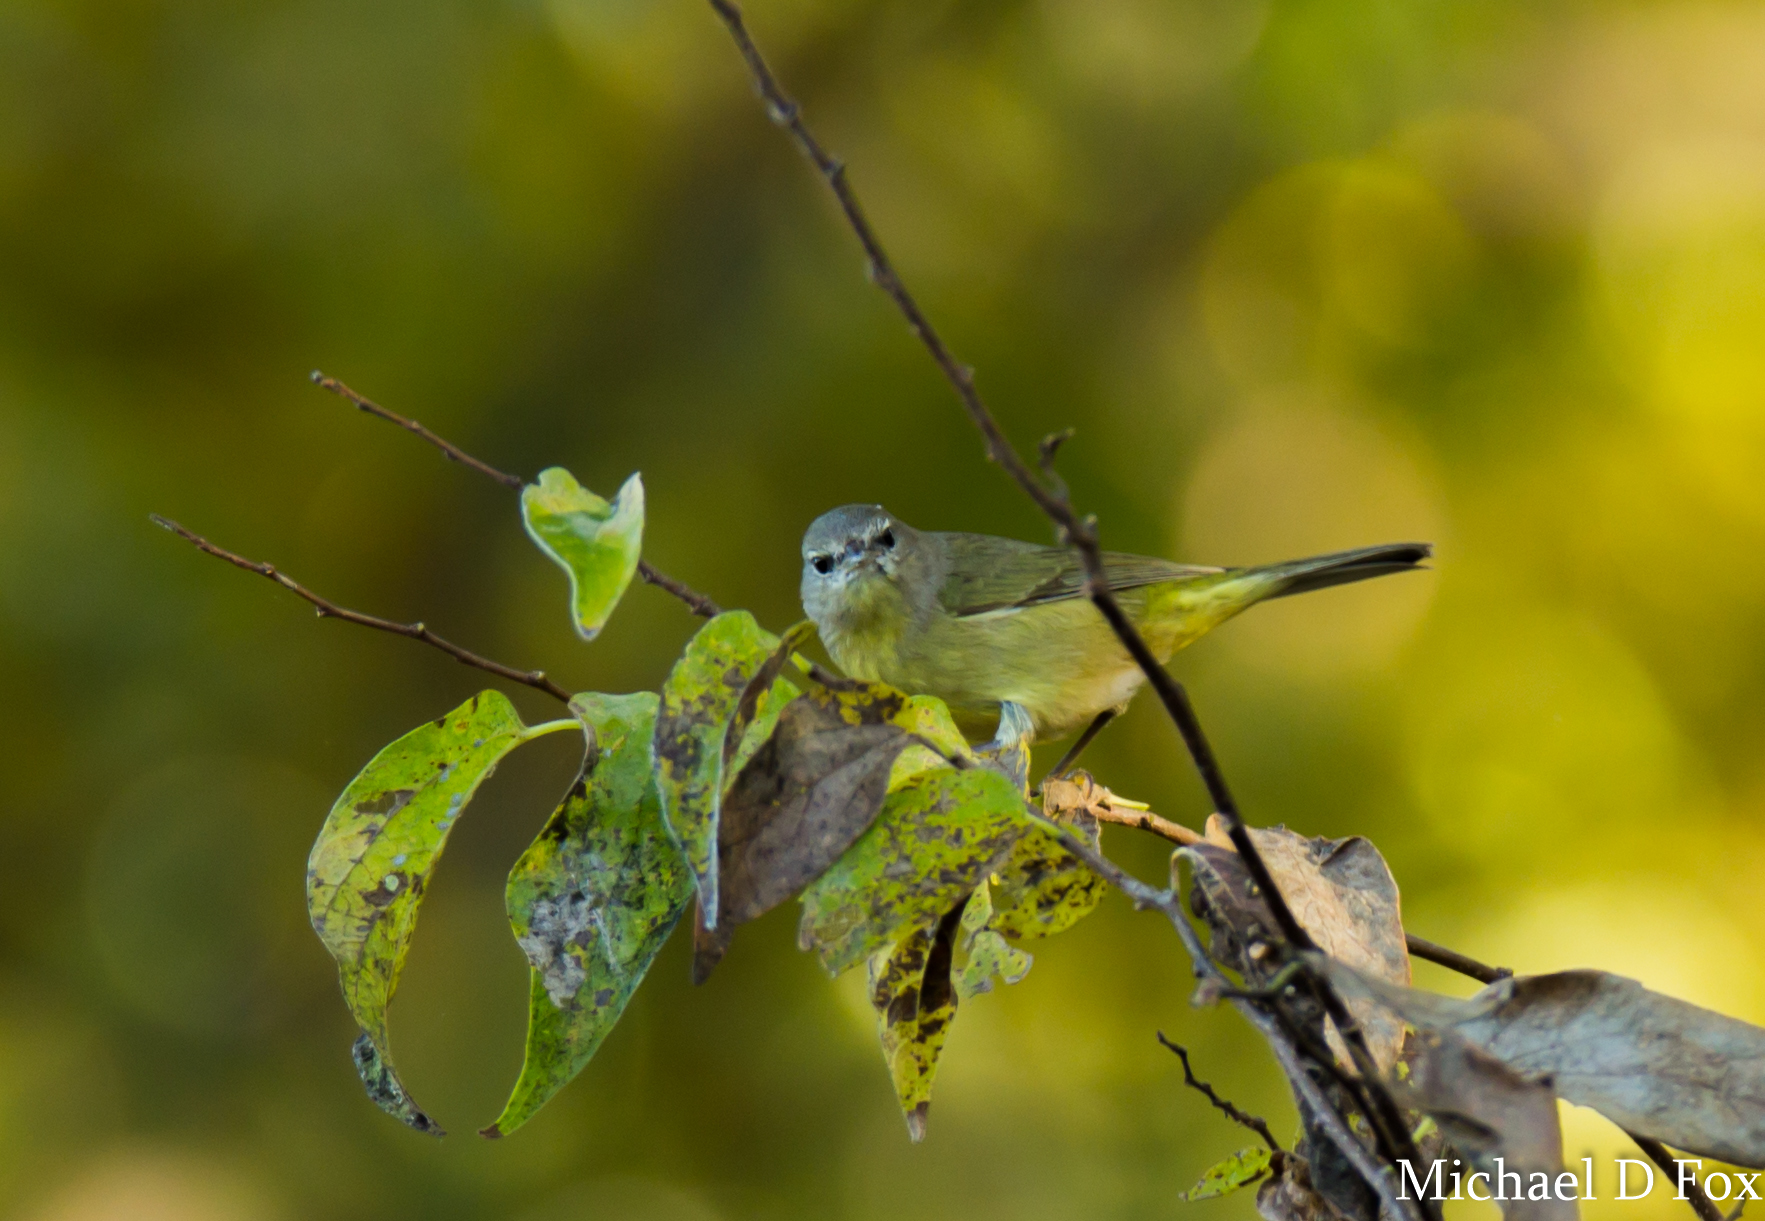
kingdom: Animalia
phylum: Chordata
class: Aves
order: Passeriformes
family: Parulidae
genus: Leiothlypis
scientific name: Leiothlypis celata
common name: Orange-crowned warbler
